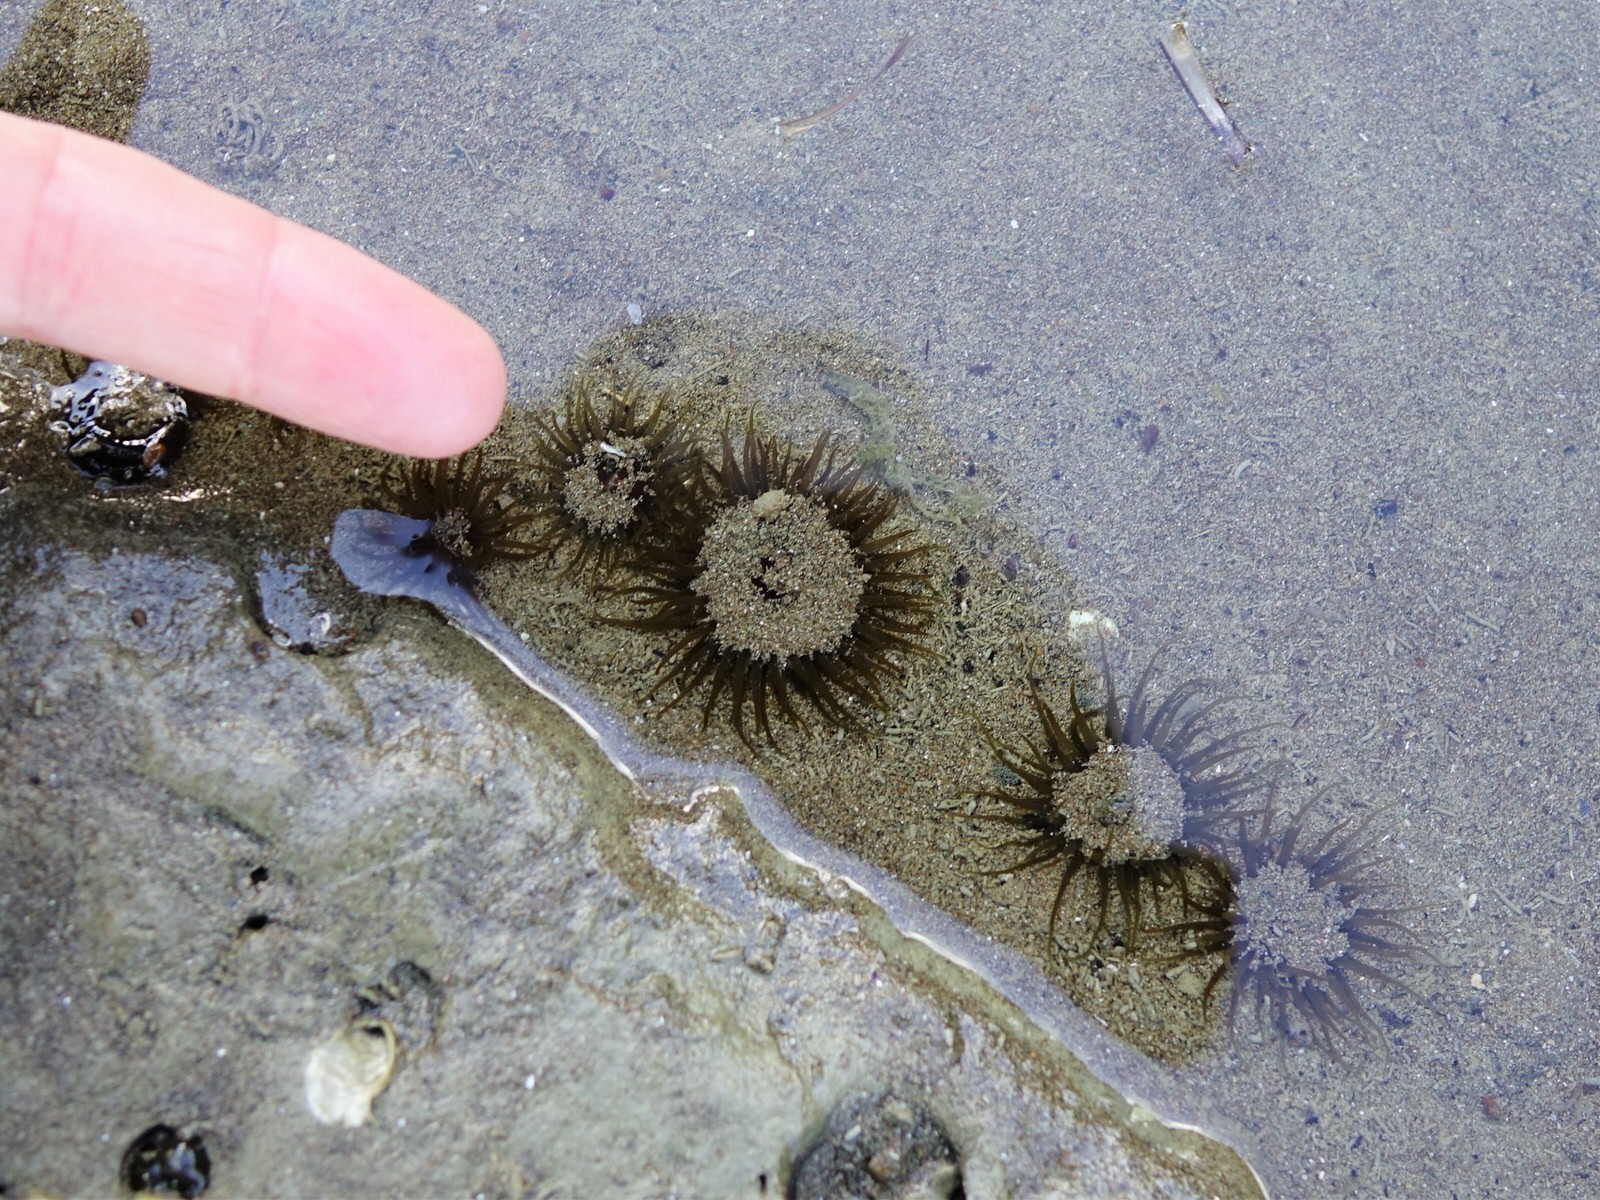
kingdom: Animalia
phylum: Cnidaria
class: Anthozoa
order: Actiniaria
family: Actiniidae
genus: Isactinia
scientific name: Isactinia olivacea
